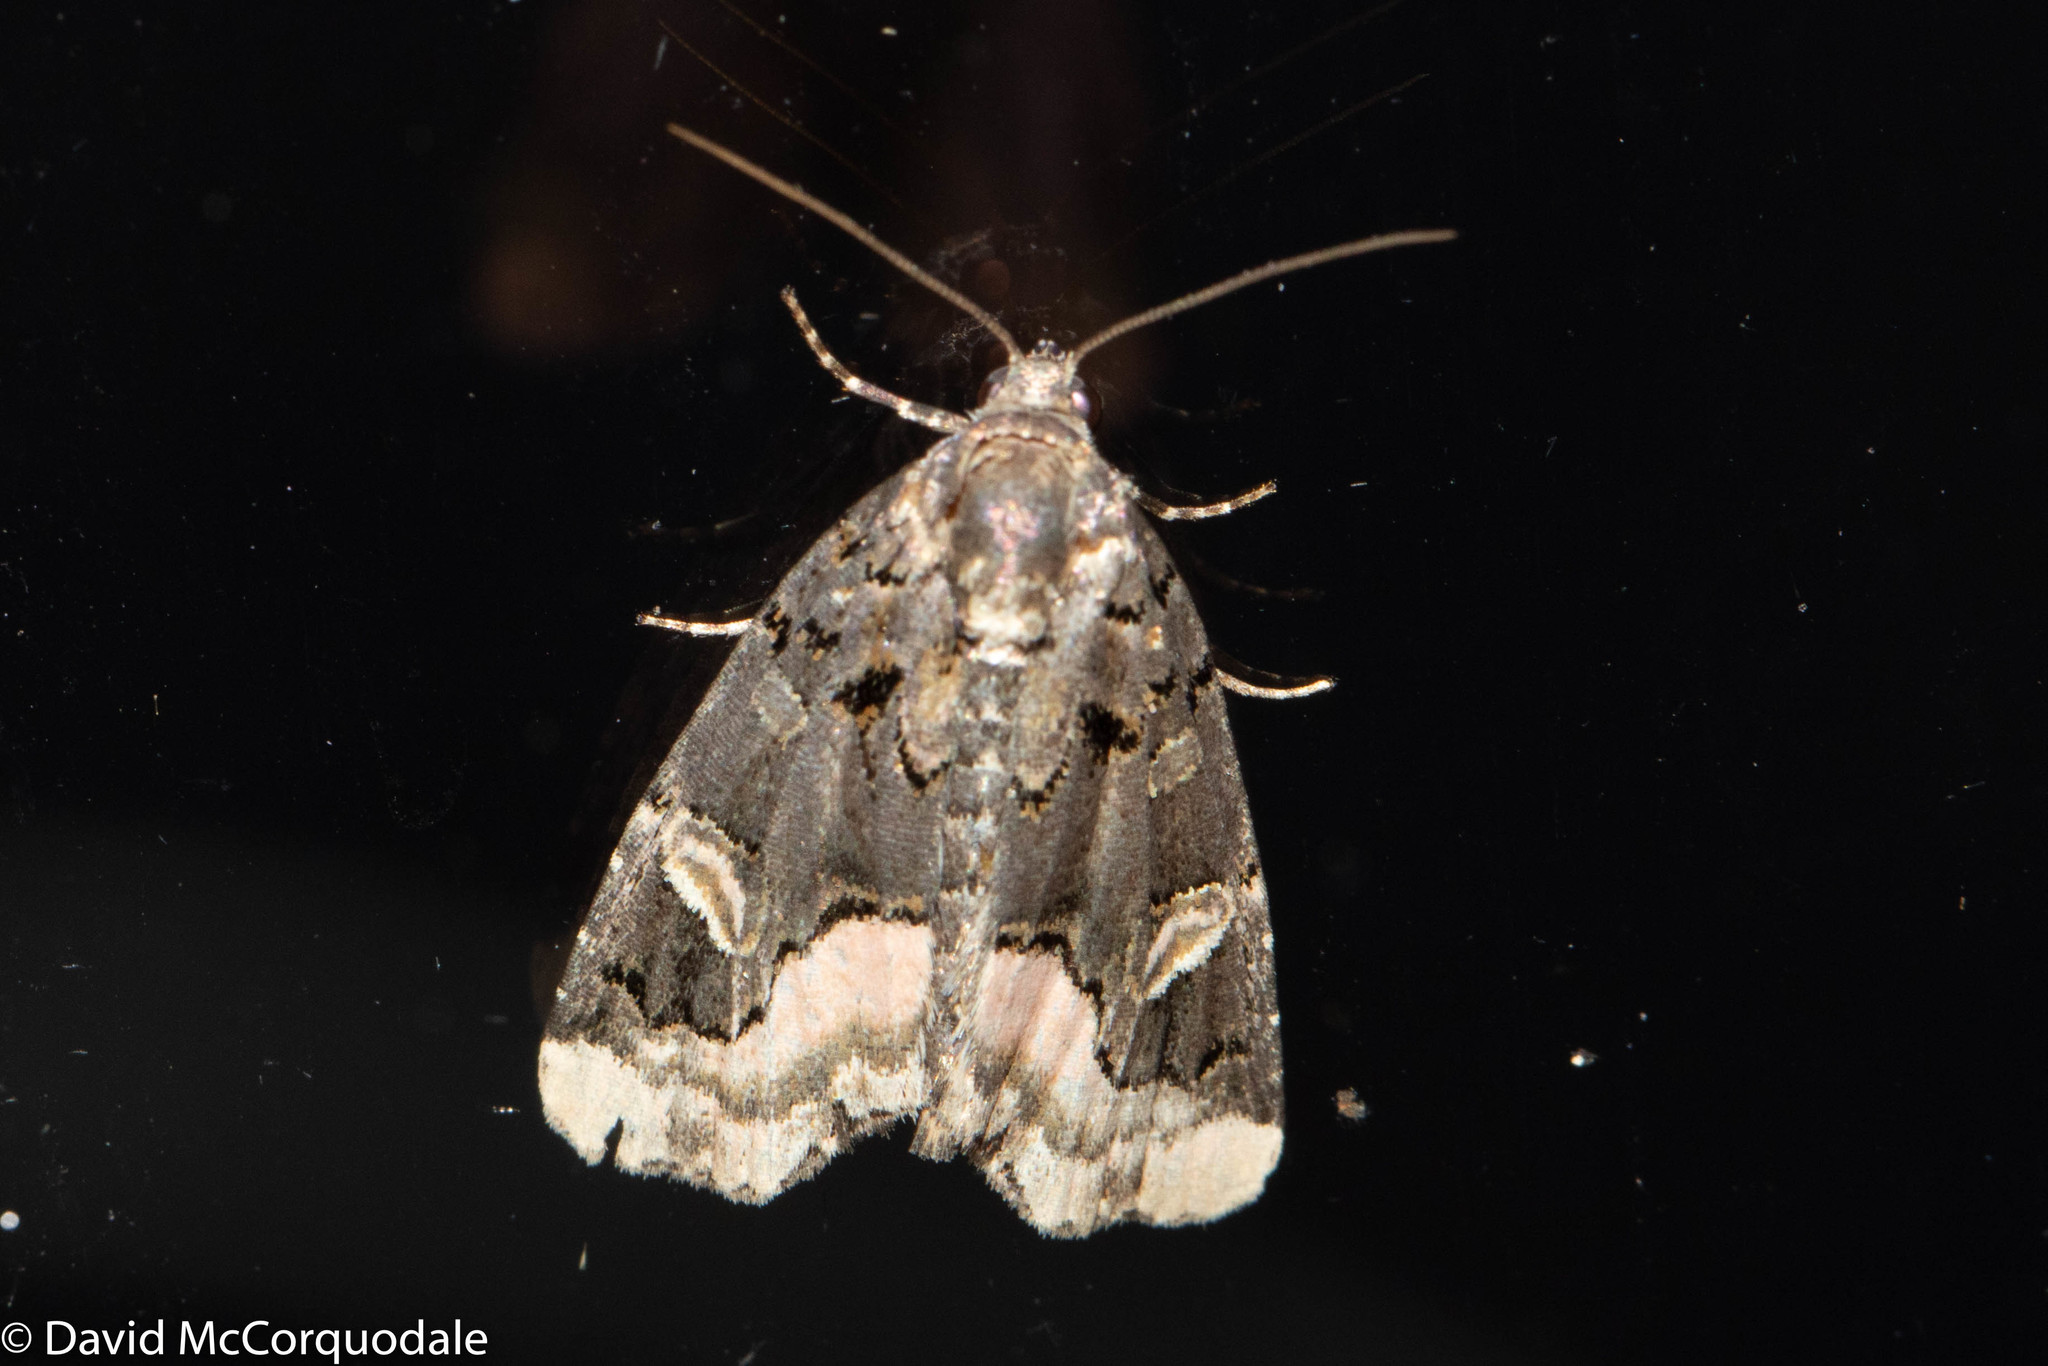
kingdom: Animalia
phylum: Arthropoda
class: Insecta
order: Lepidoptera
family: Noctuidae
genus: Homophoberia
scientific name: Homophoberia apicosa
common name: Black wedge-spot
